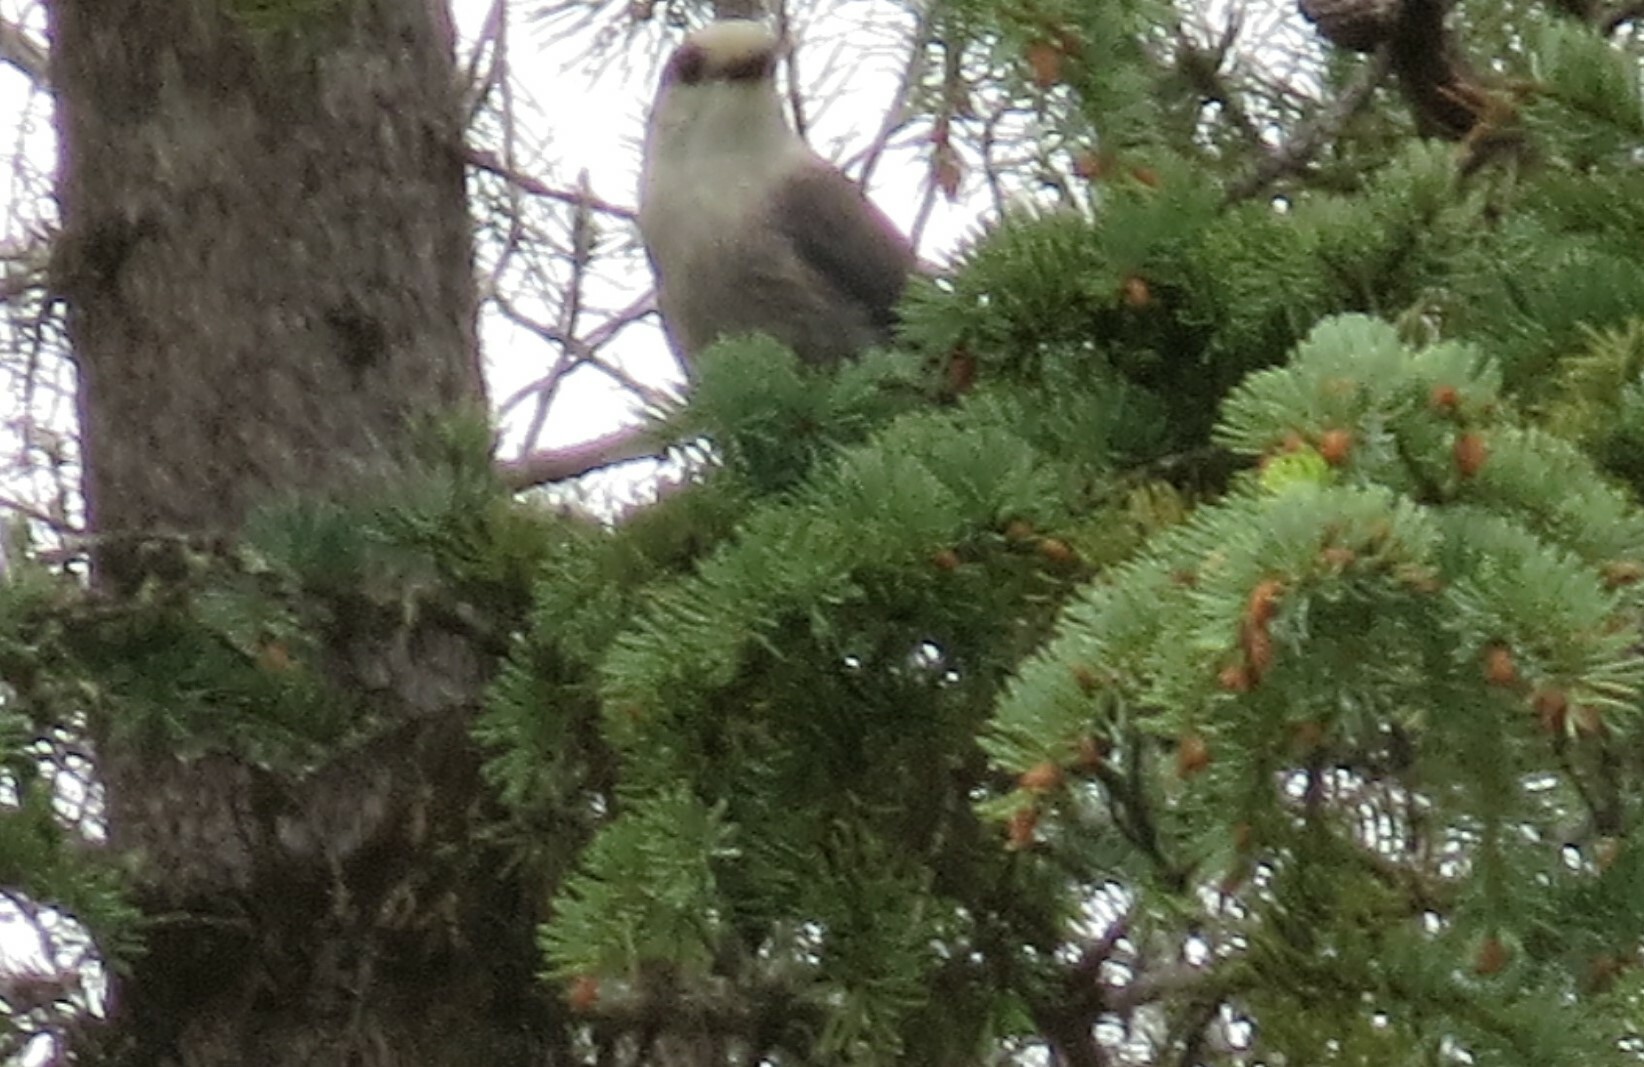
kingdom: Animalia
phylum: Chordata
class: Aves
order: Passeriformes
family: Corvidae
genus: Perisoreus
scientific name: Perisoreus canadensis
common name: Gray jay
